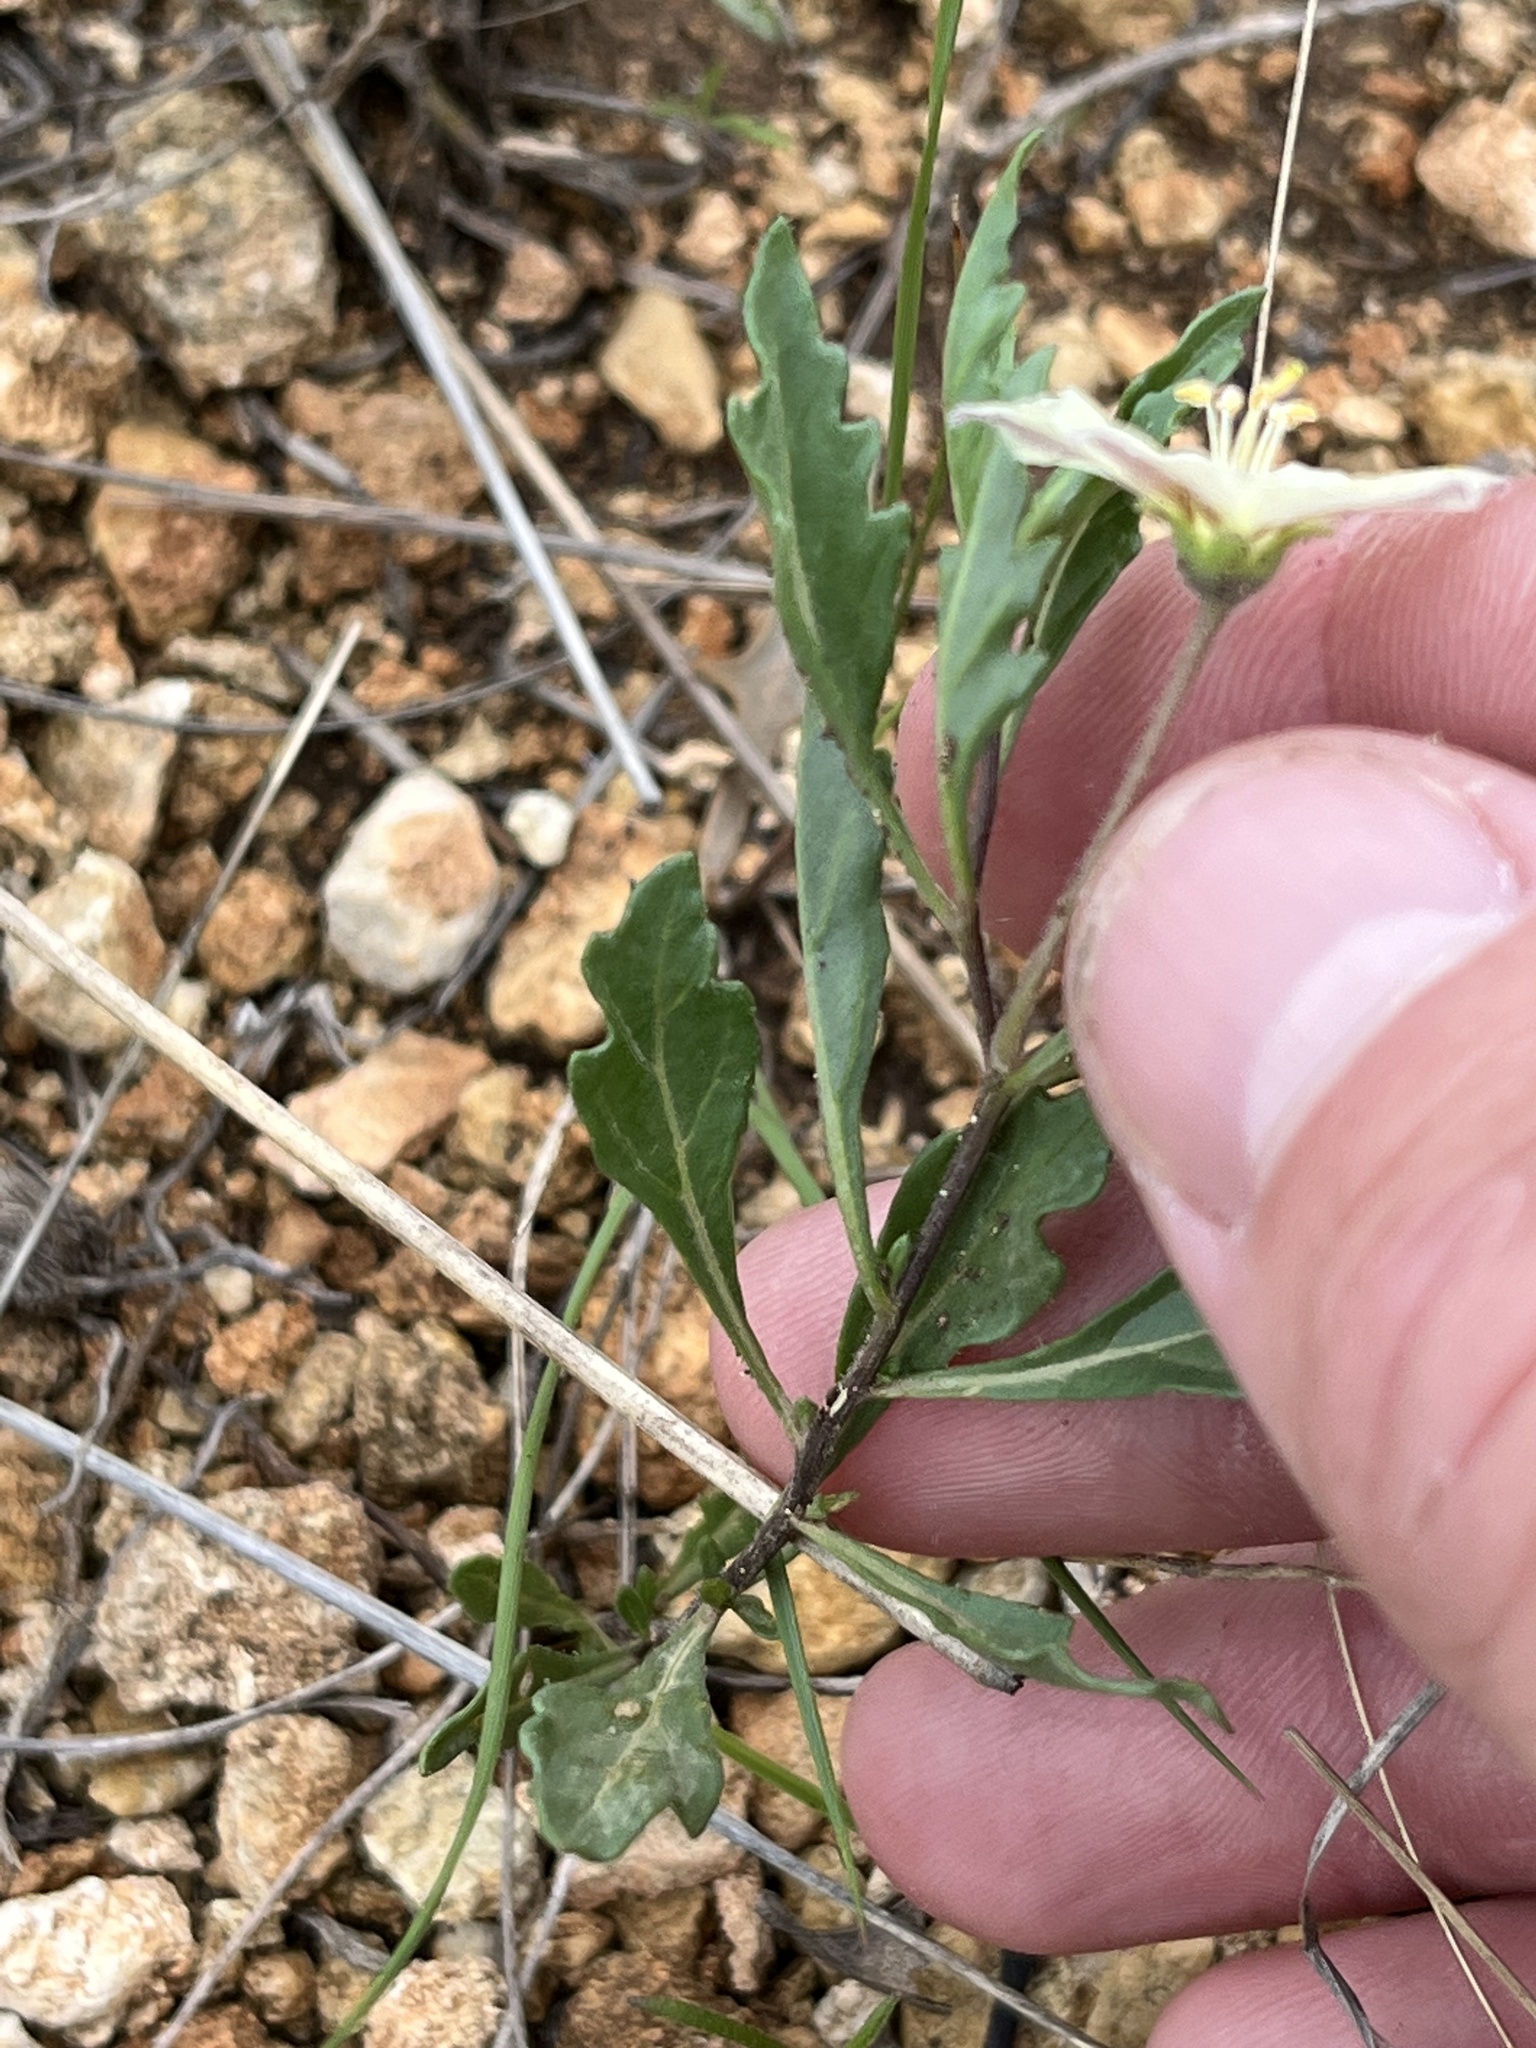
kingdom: Plantae
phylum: Tracheophyta
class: Magnoliopsida
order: Solanales
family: Solanaceae
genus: Chamaesaracha
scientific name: Chamaesaracha edwardsiana
